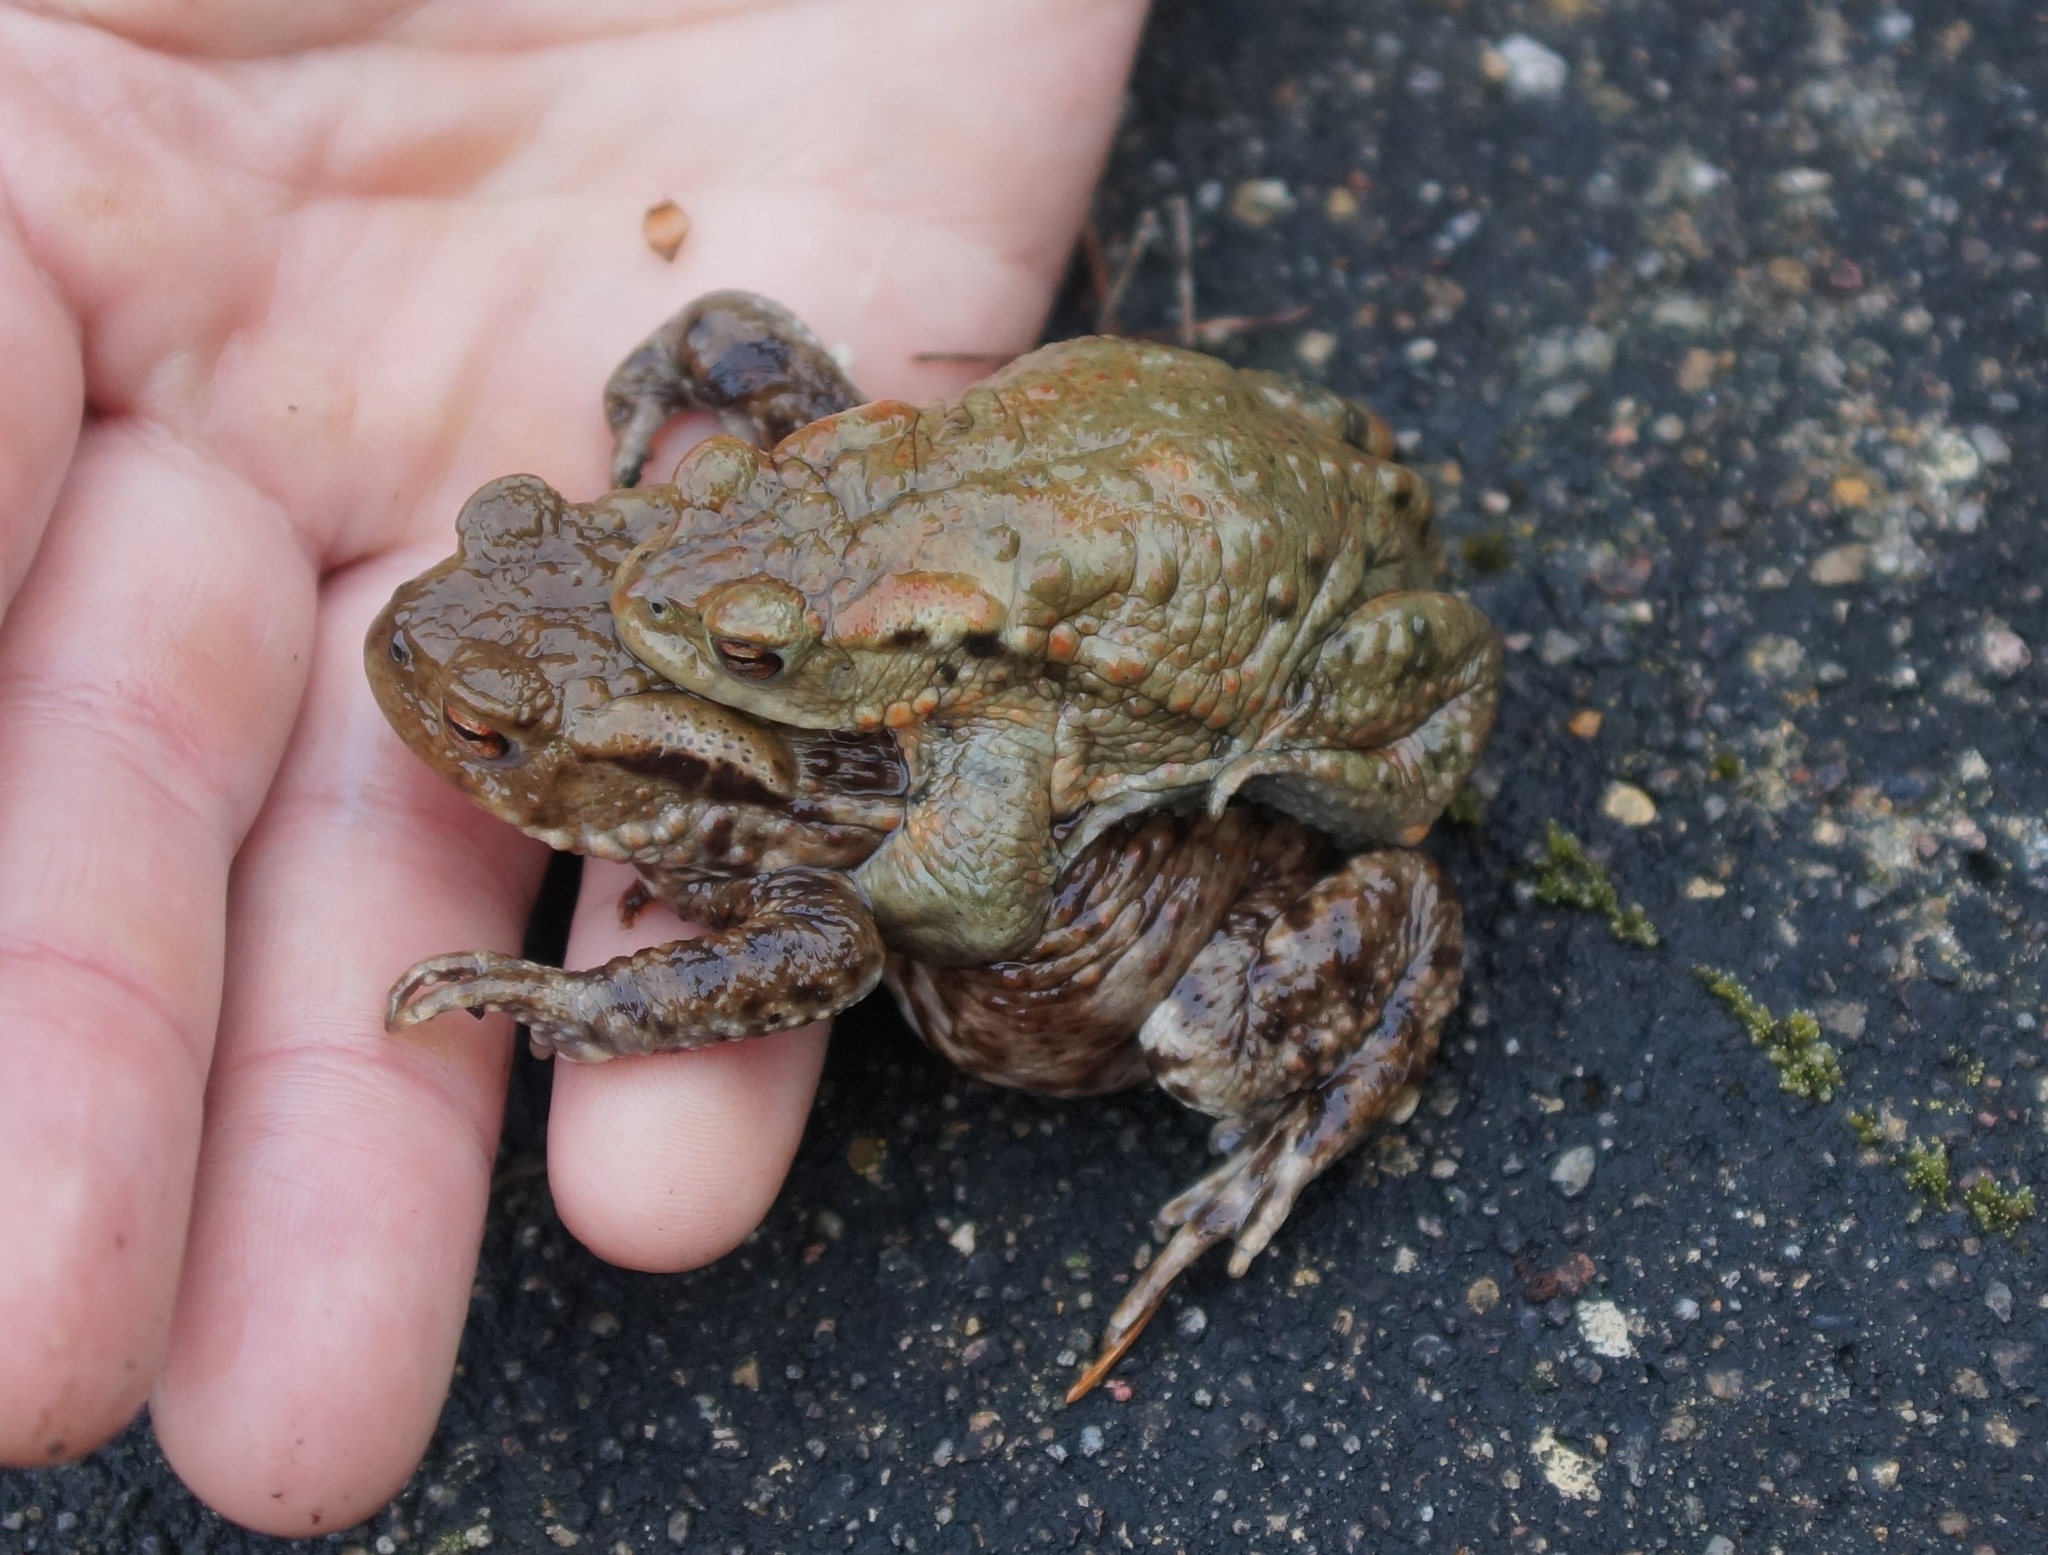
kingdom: Animalia
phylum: Chordata
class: Amphibia
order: Anura
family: Bufonidae
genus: Bufo
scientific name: Bufo bufo
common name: Common toad
